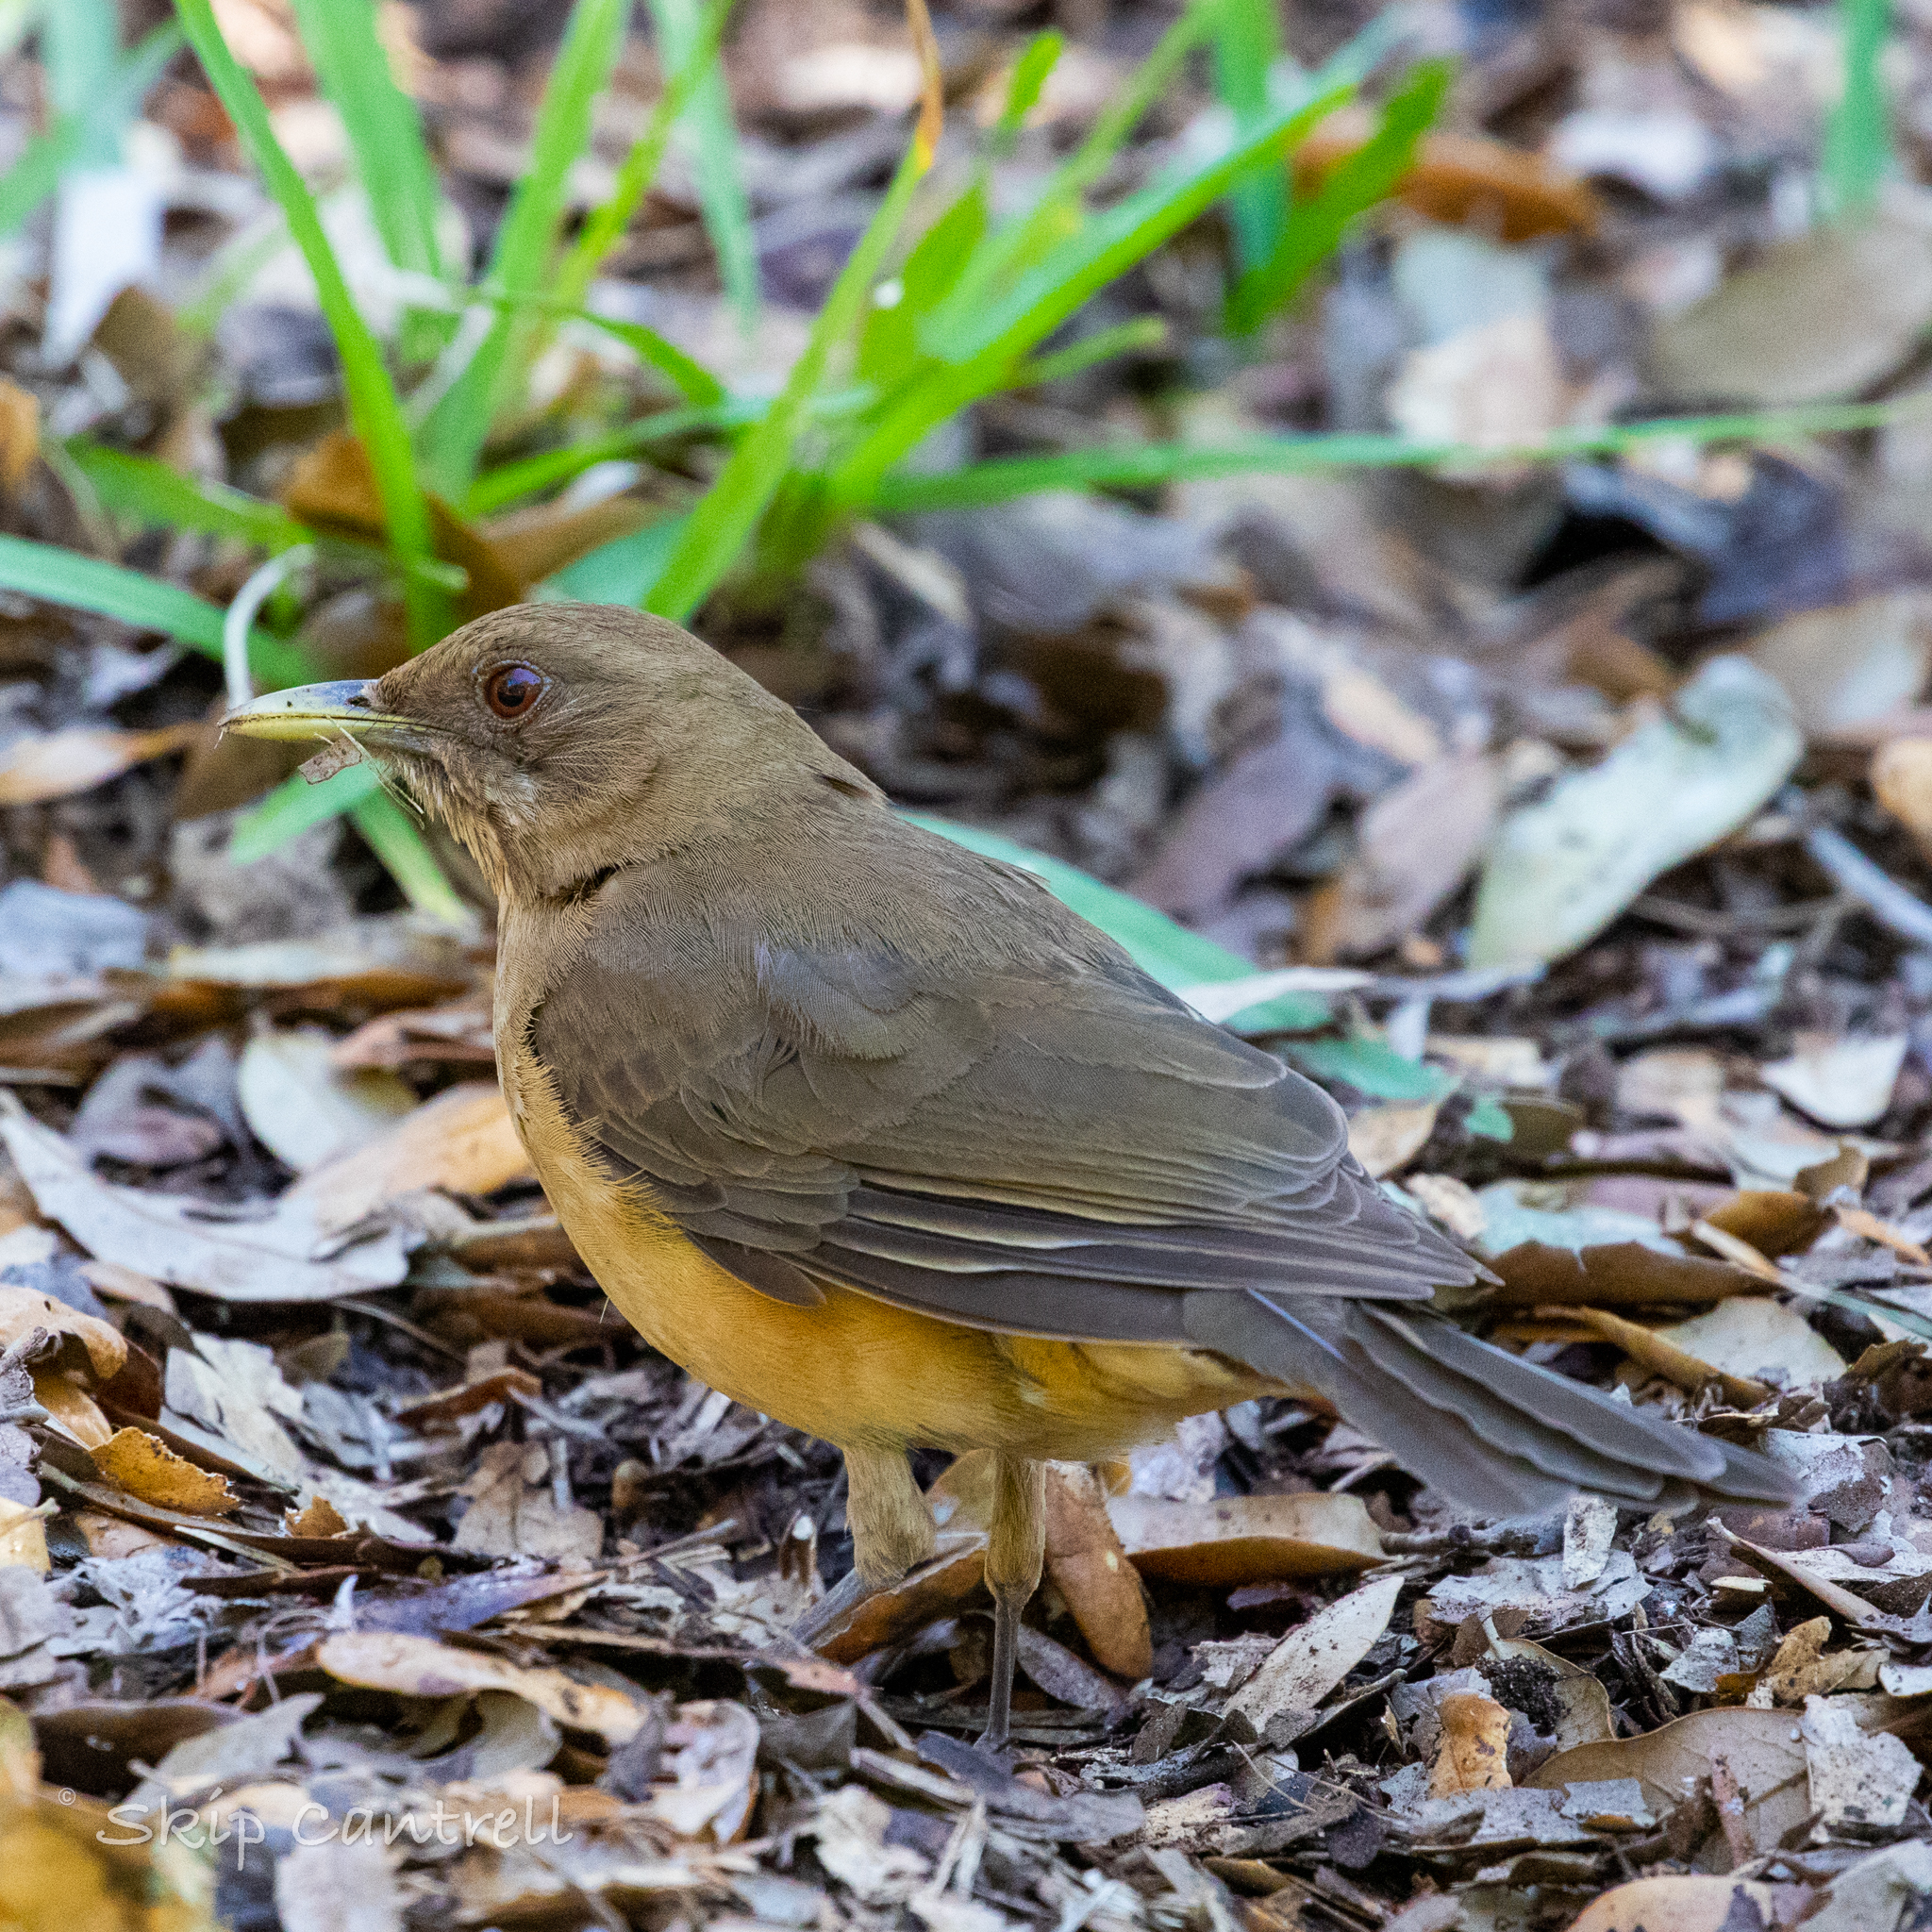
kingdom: Animalia
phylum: Chordata
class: Aves
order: Passeriformes
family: Turdidae
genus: Turdus
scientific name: Turdus grayi
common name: Clay-colored thrush
